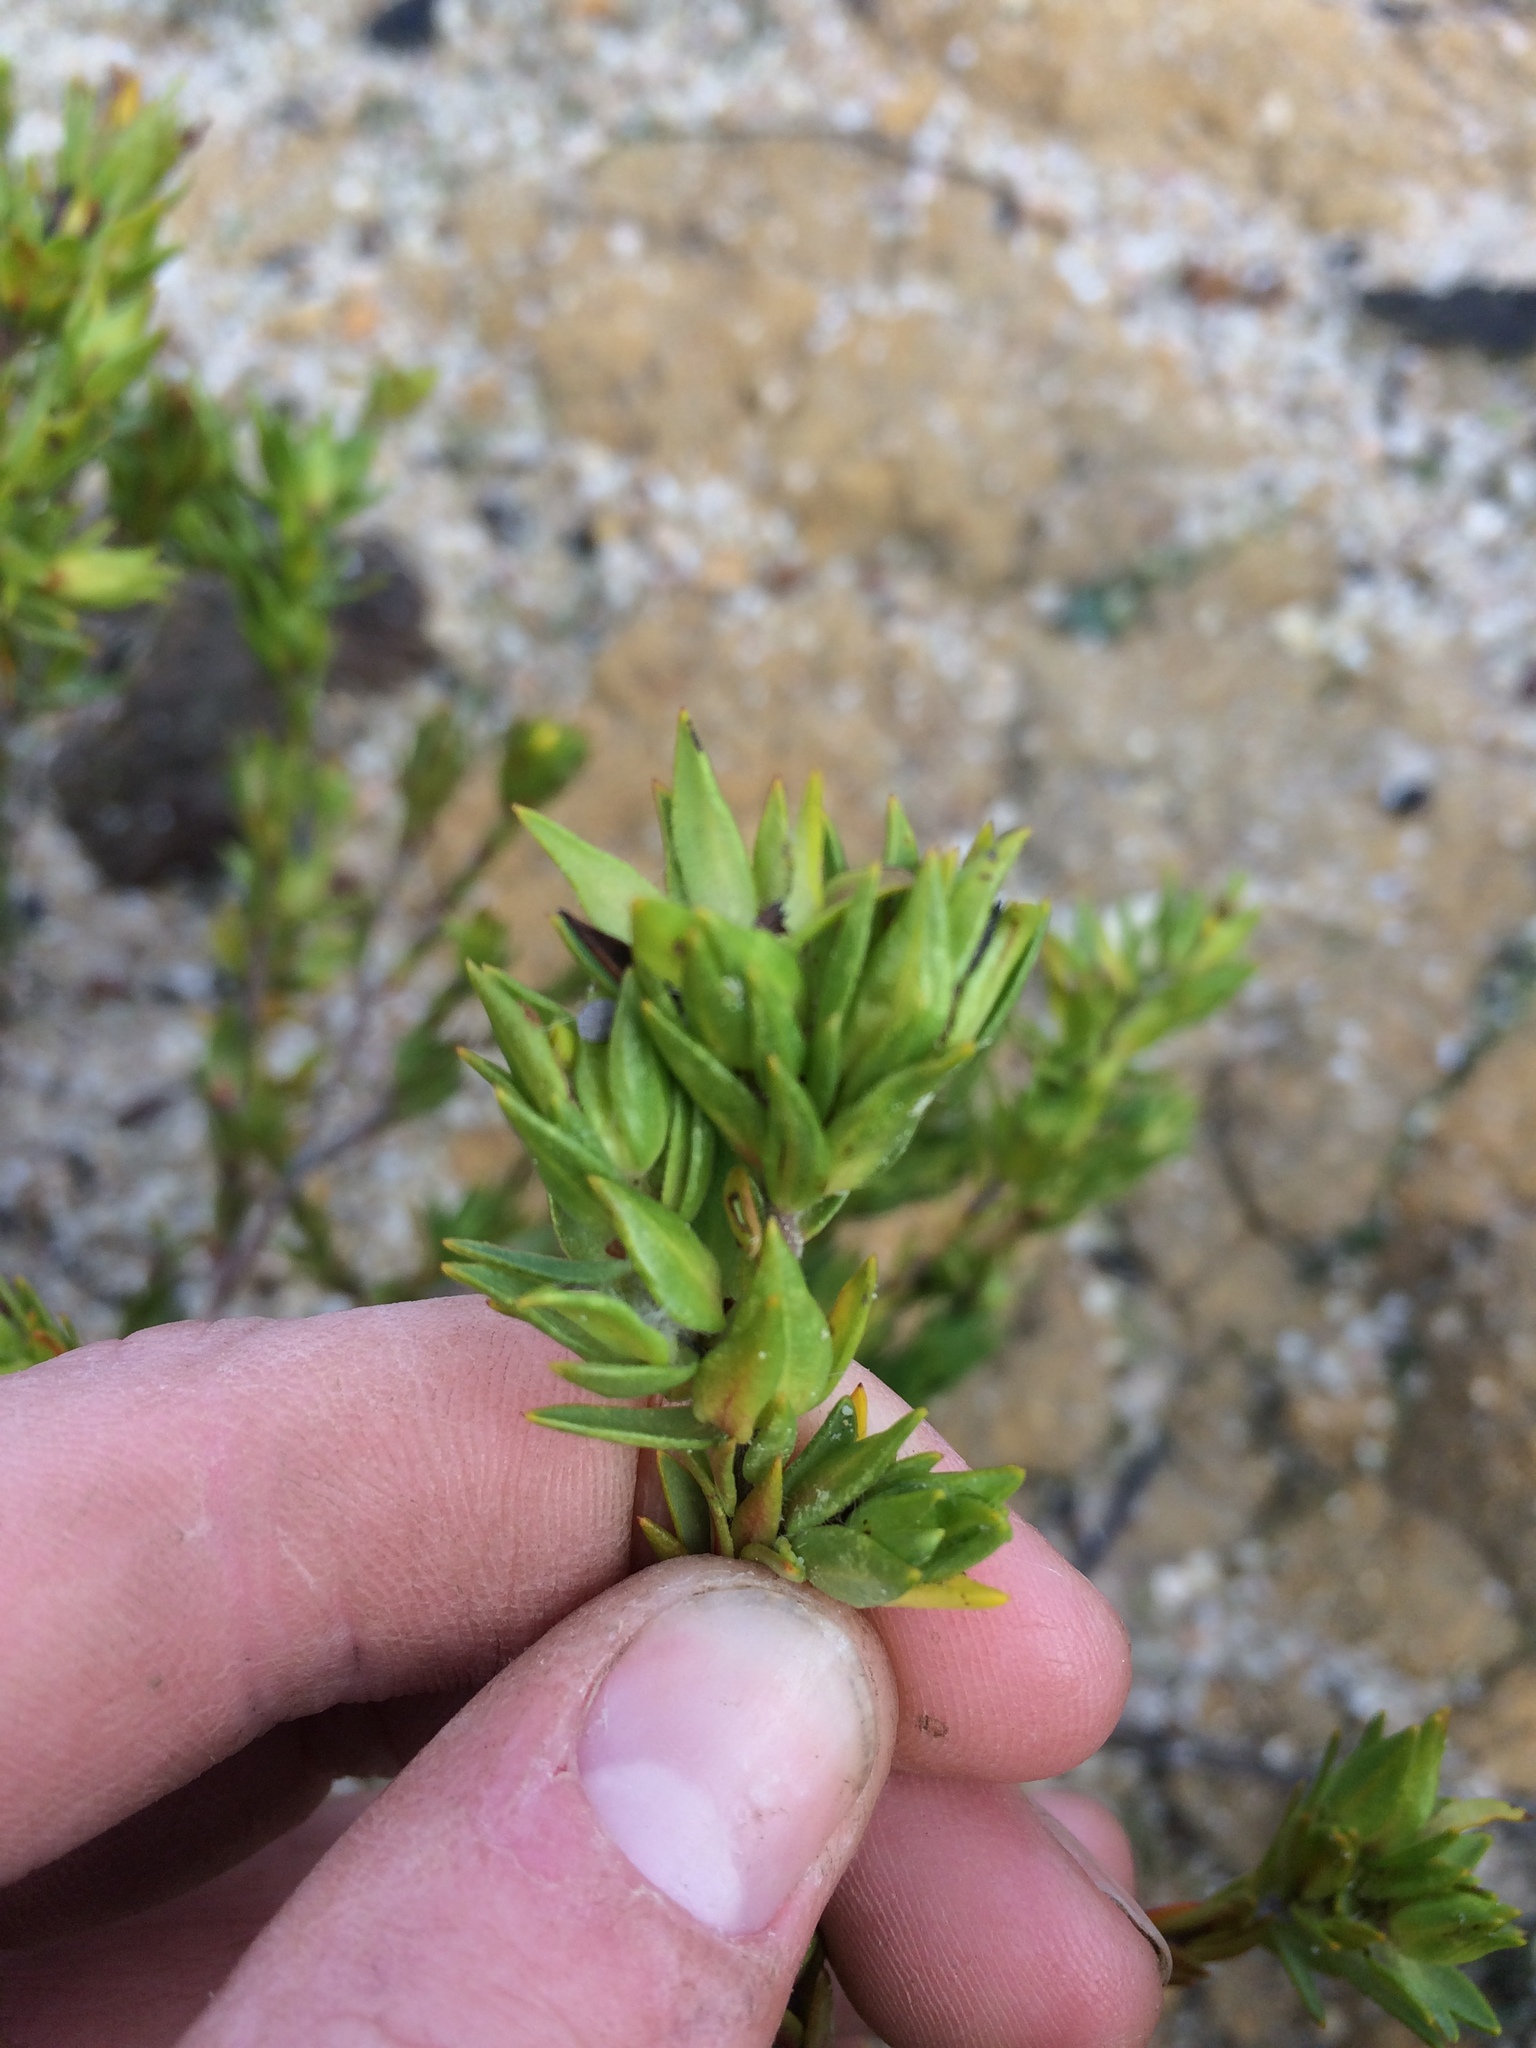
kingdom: Plantae
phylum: Tracheophyta
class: Magnoliopsida
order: Malvales
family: Thymelaeaceae
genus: Gnidia
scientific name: Gnidia juniperifolia
